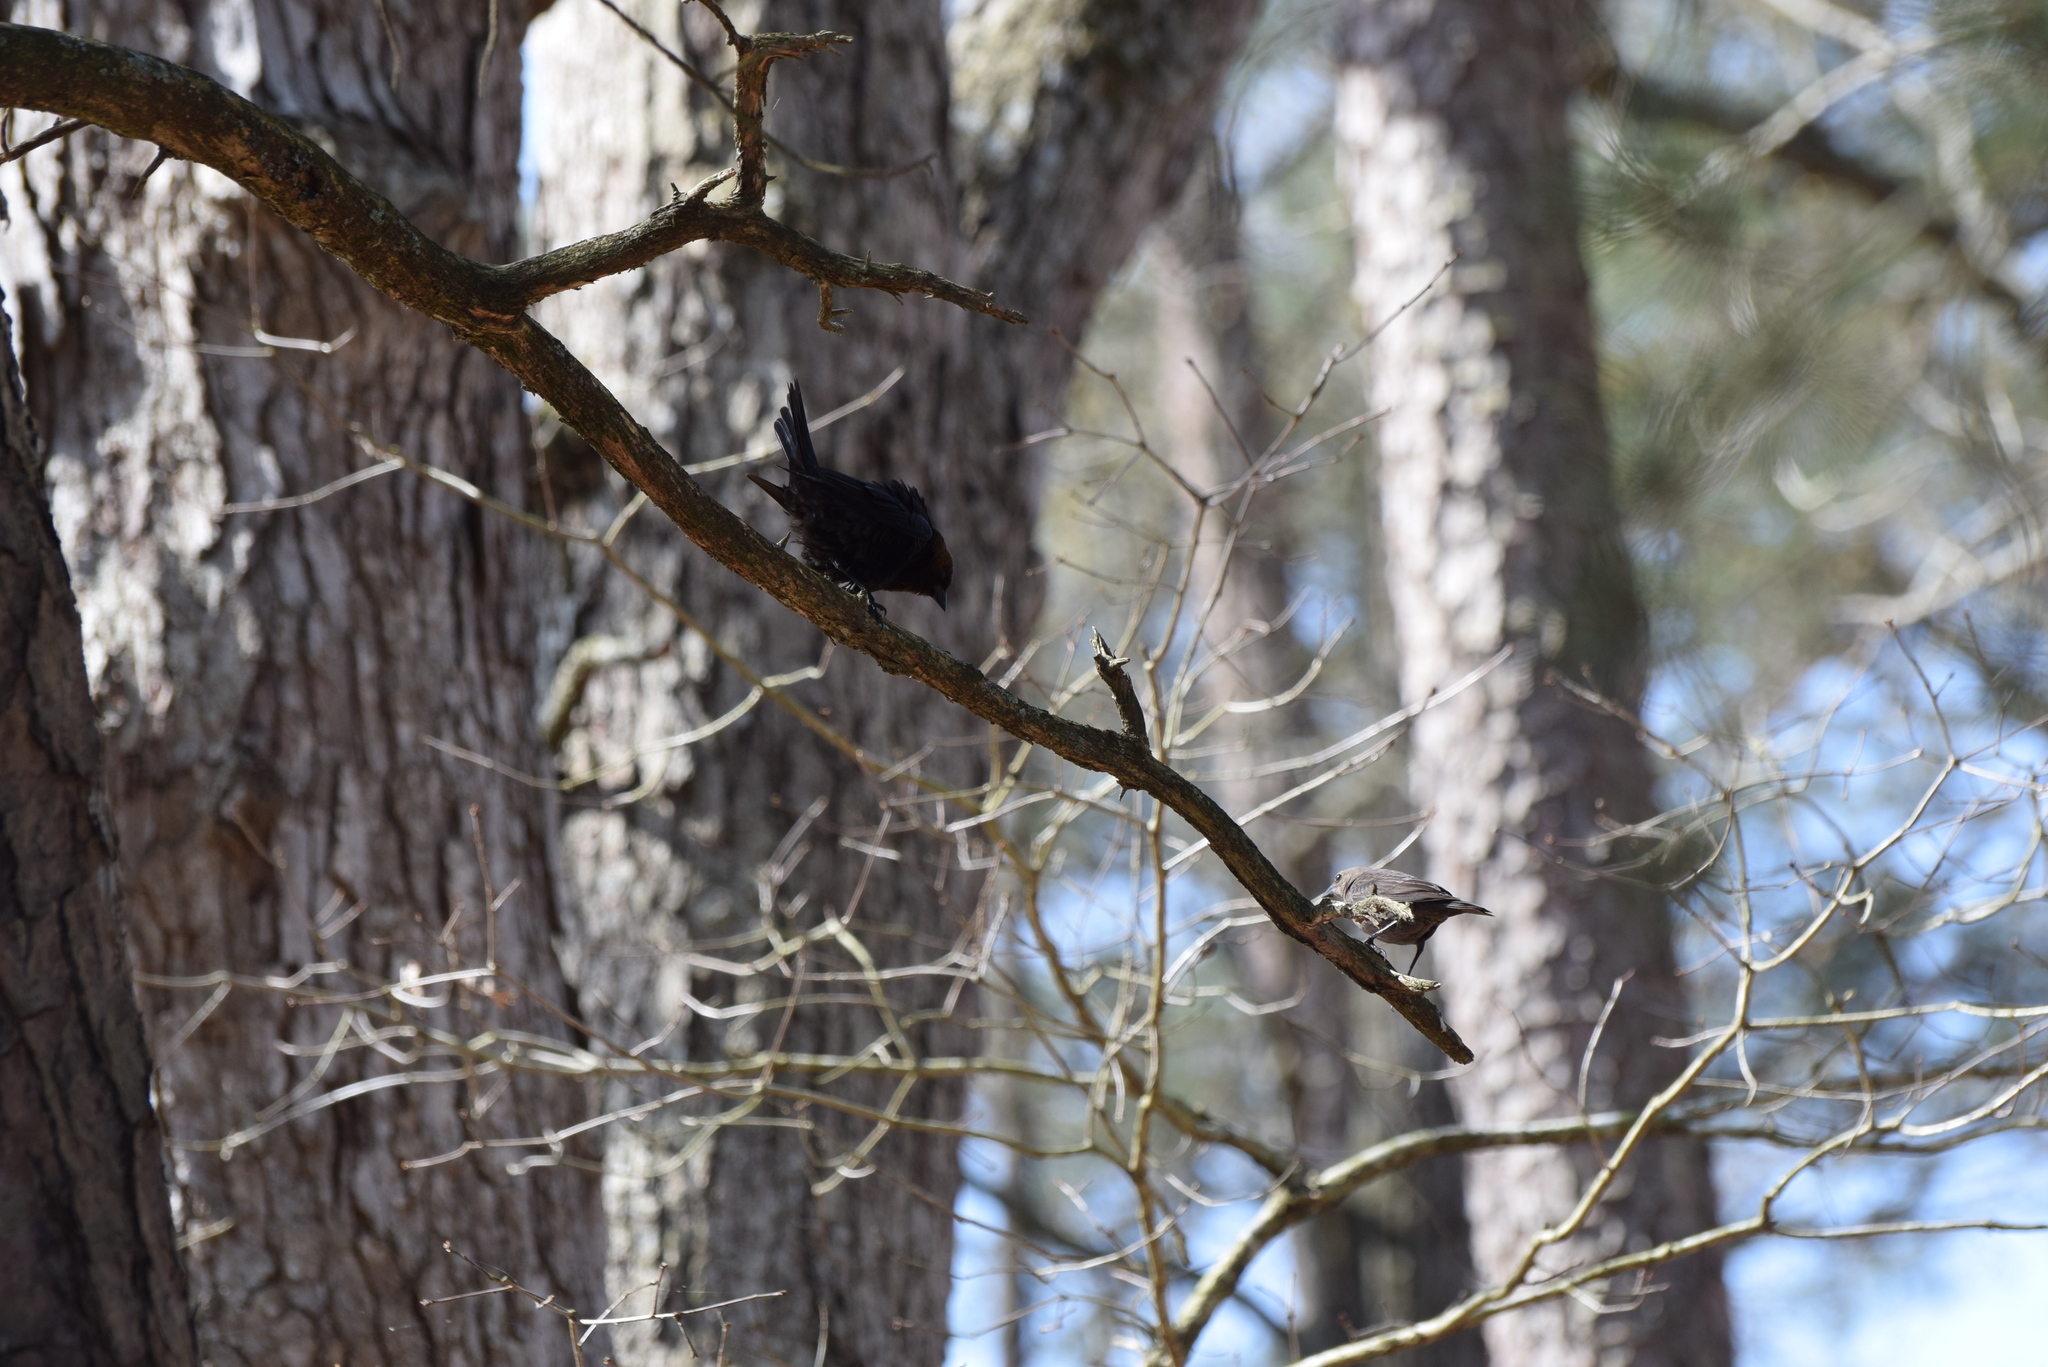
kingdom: Animalia
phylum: Chordata
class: Aves
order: Passeriformes
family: Icteridae
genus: Molothrus
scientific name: Molothrus ater
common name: Brown-headed cowbird
